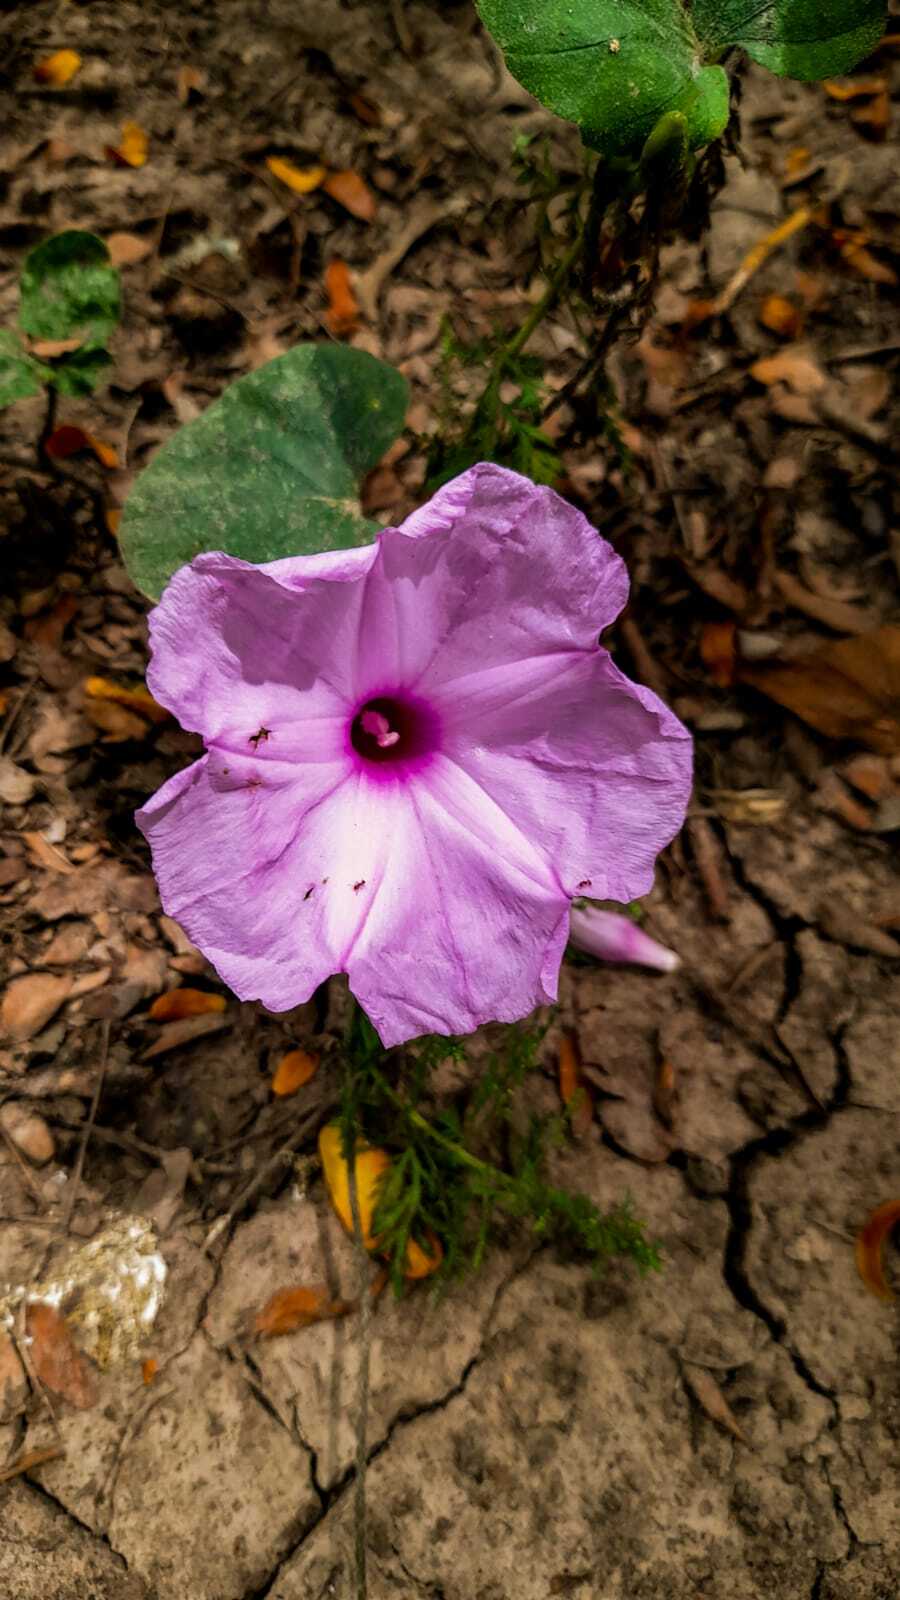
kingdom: Plantae
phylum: Tracheophyta
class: Magnoliopsida
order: Solanales
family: Convolvulaceae
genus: Ipomoea
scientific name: Ipomoea bonariensis
